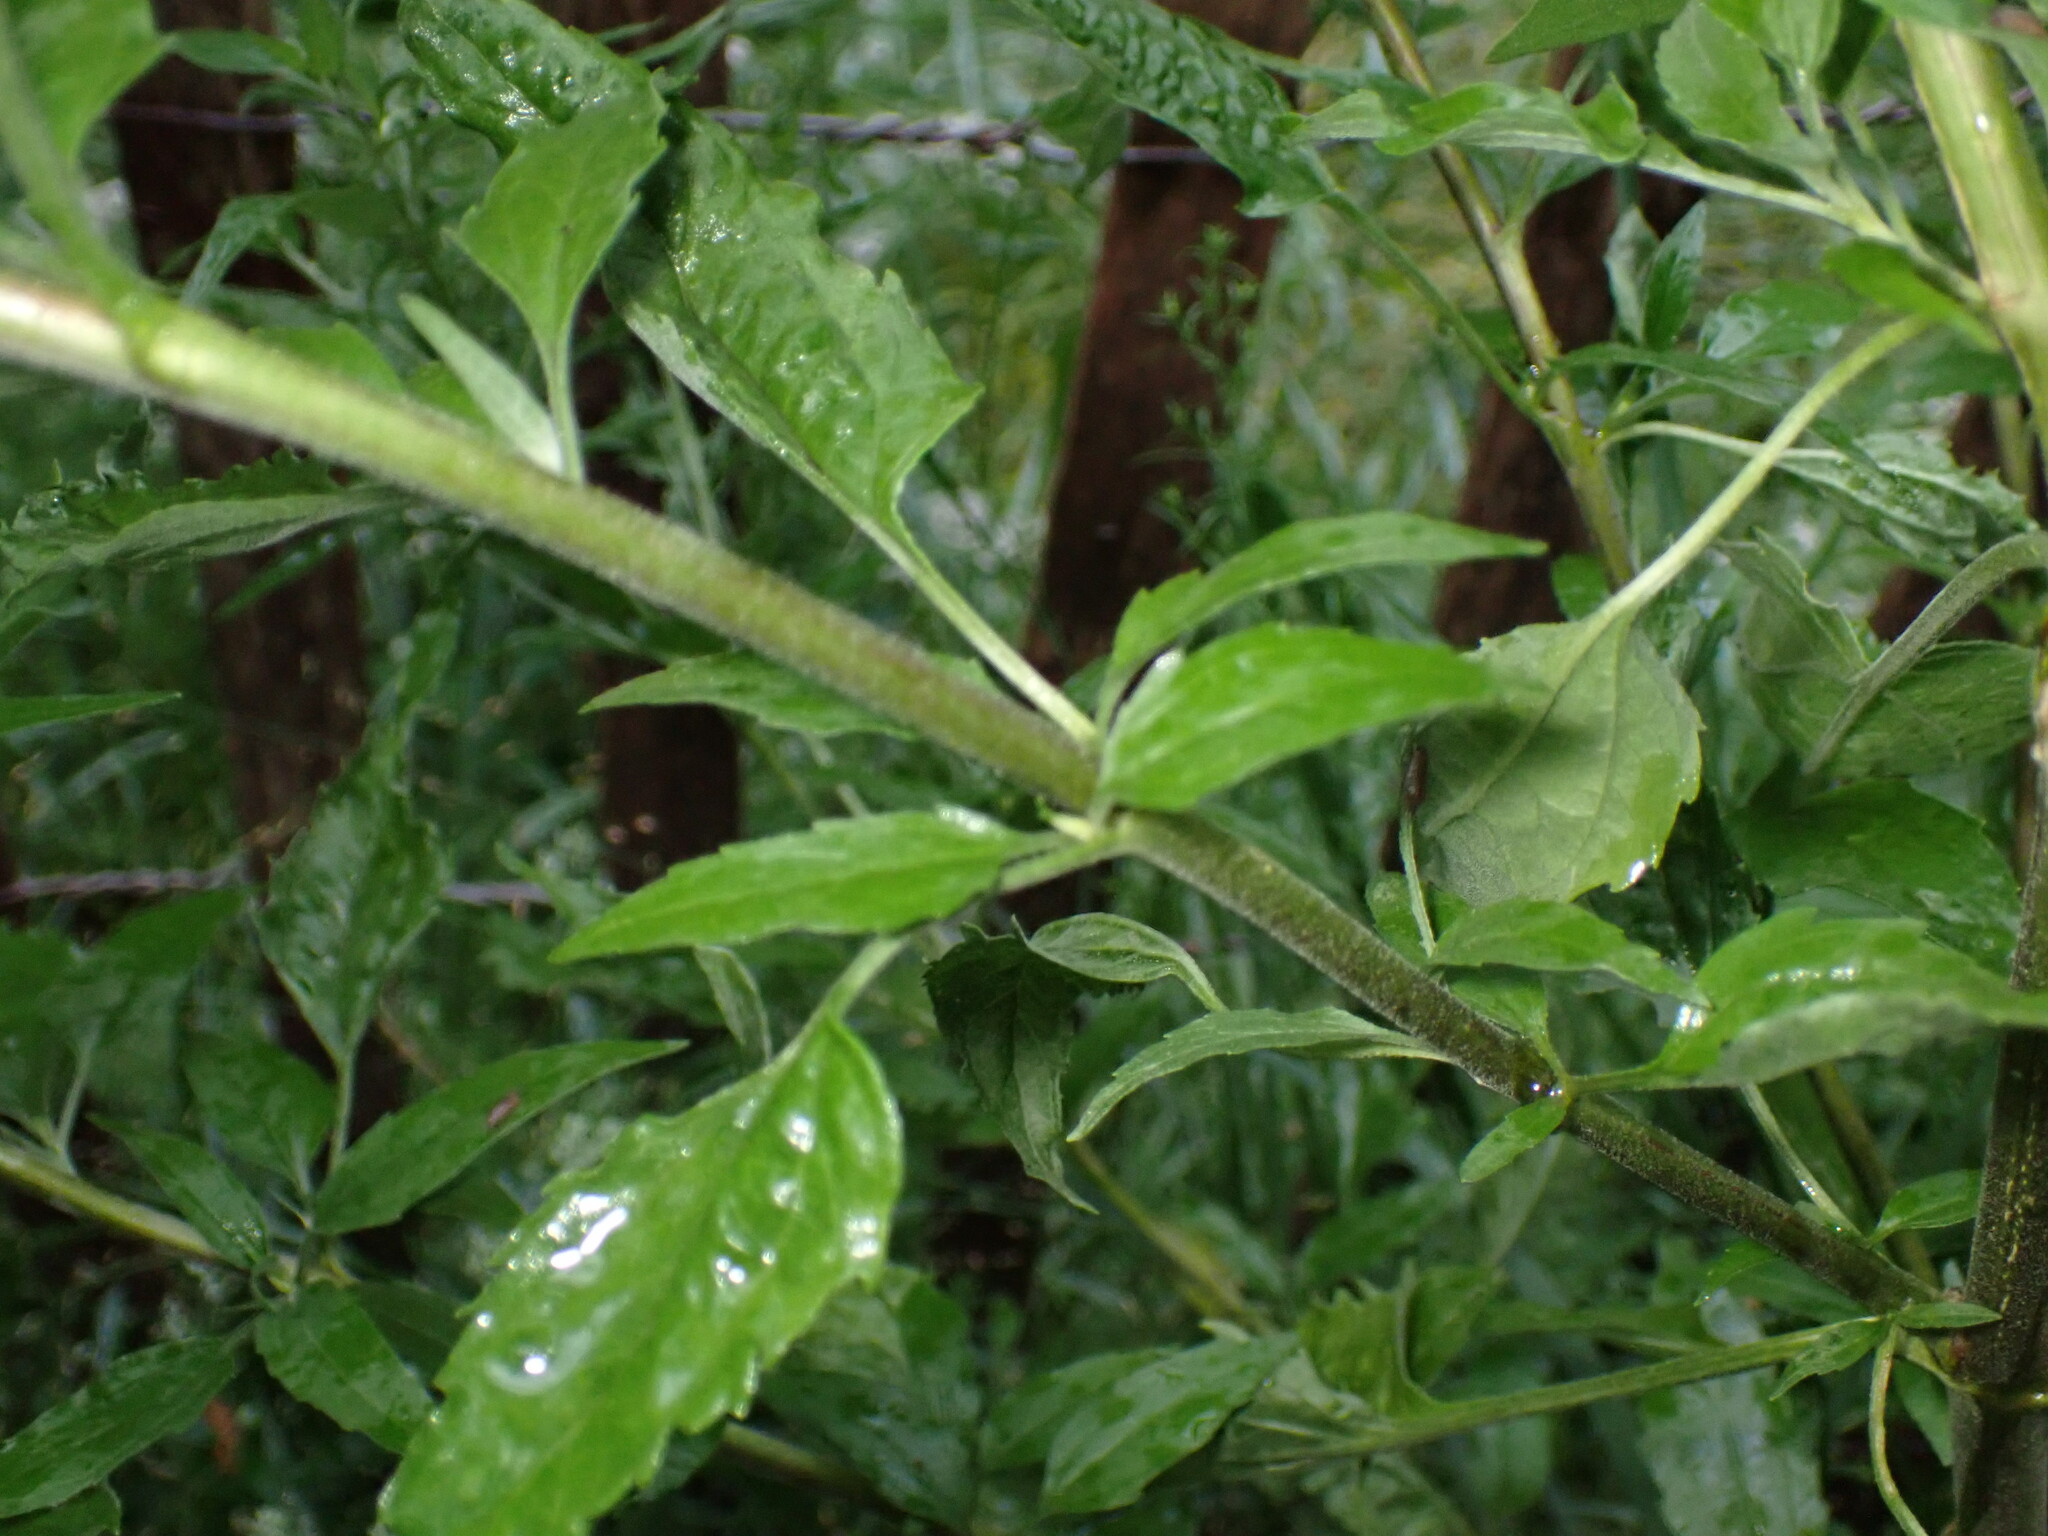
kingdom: Plantae
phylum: Tracheophyta
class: Magnoliopsida
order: Asterales
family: Asteraceae
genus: Eupatorium
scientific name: Eupatorium serotinum
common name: Late boneset
